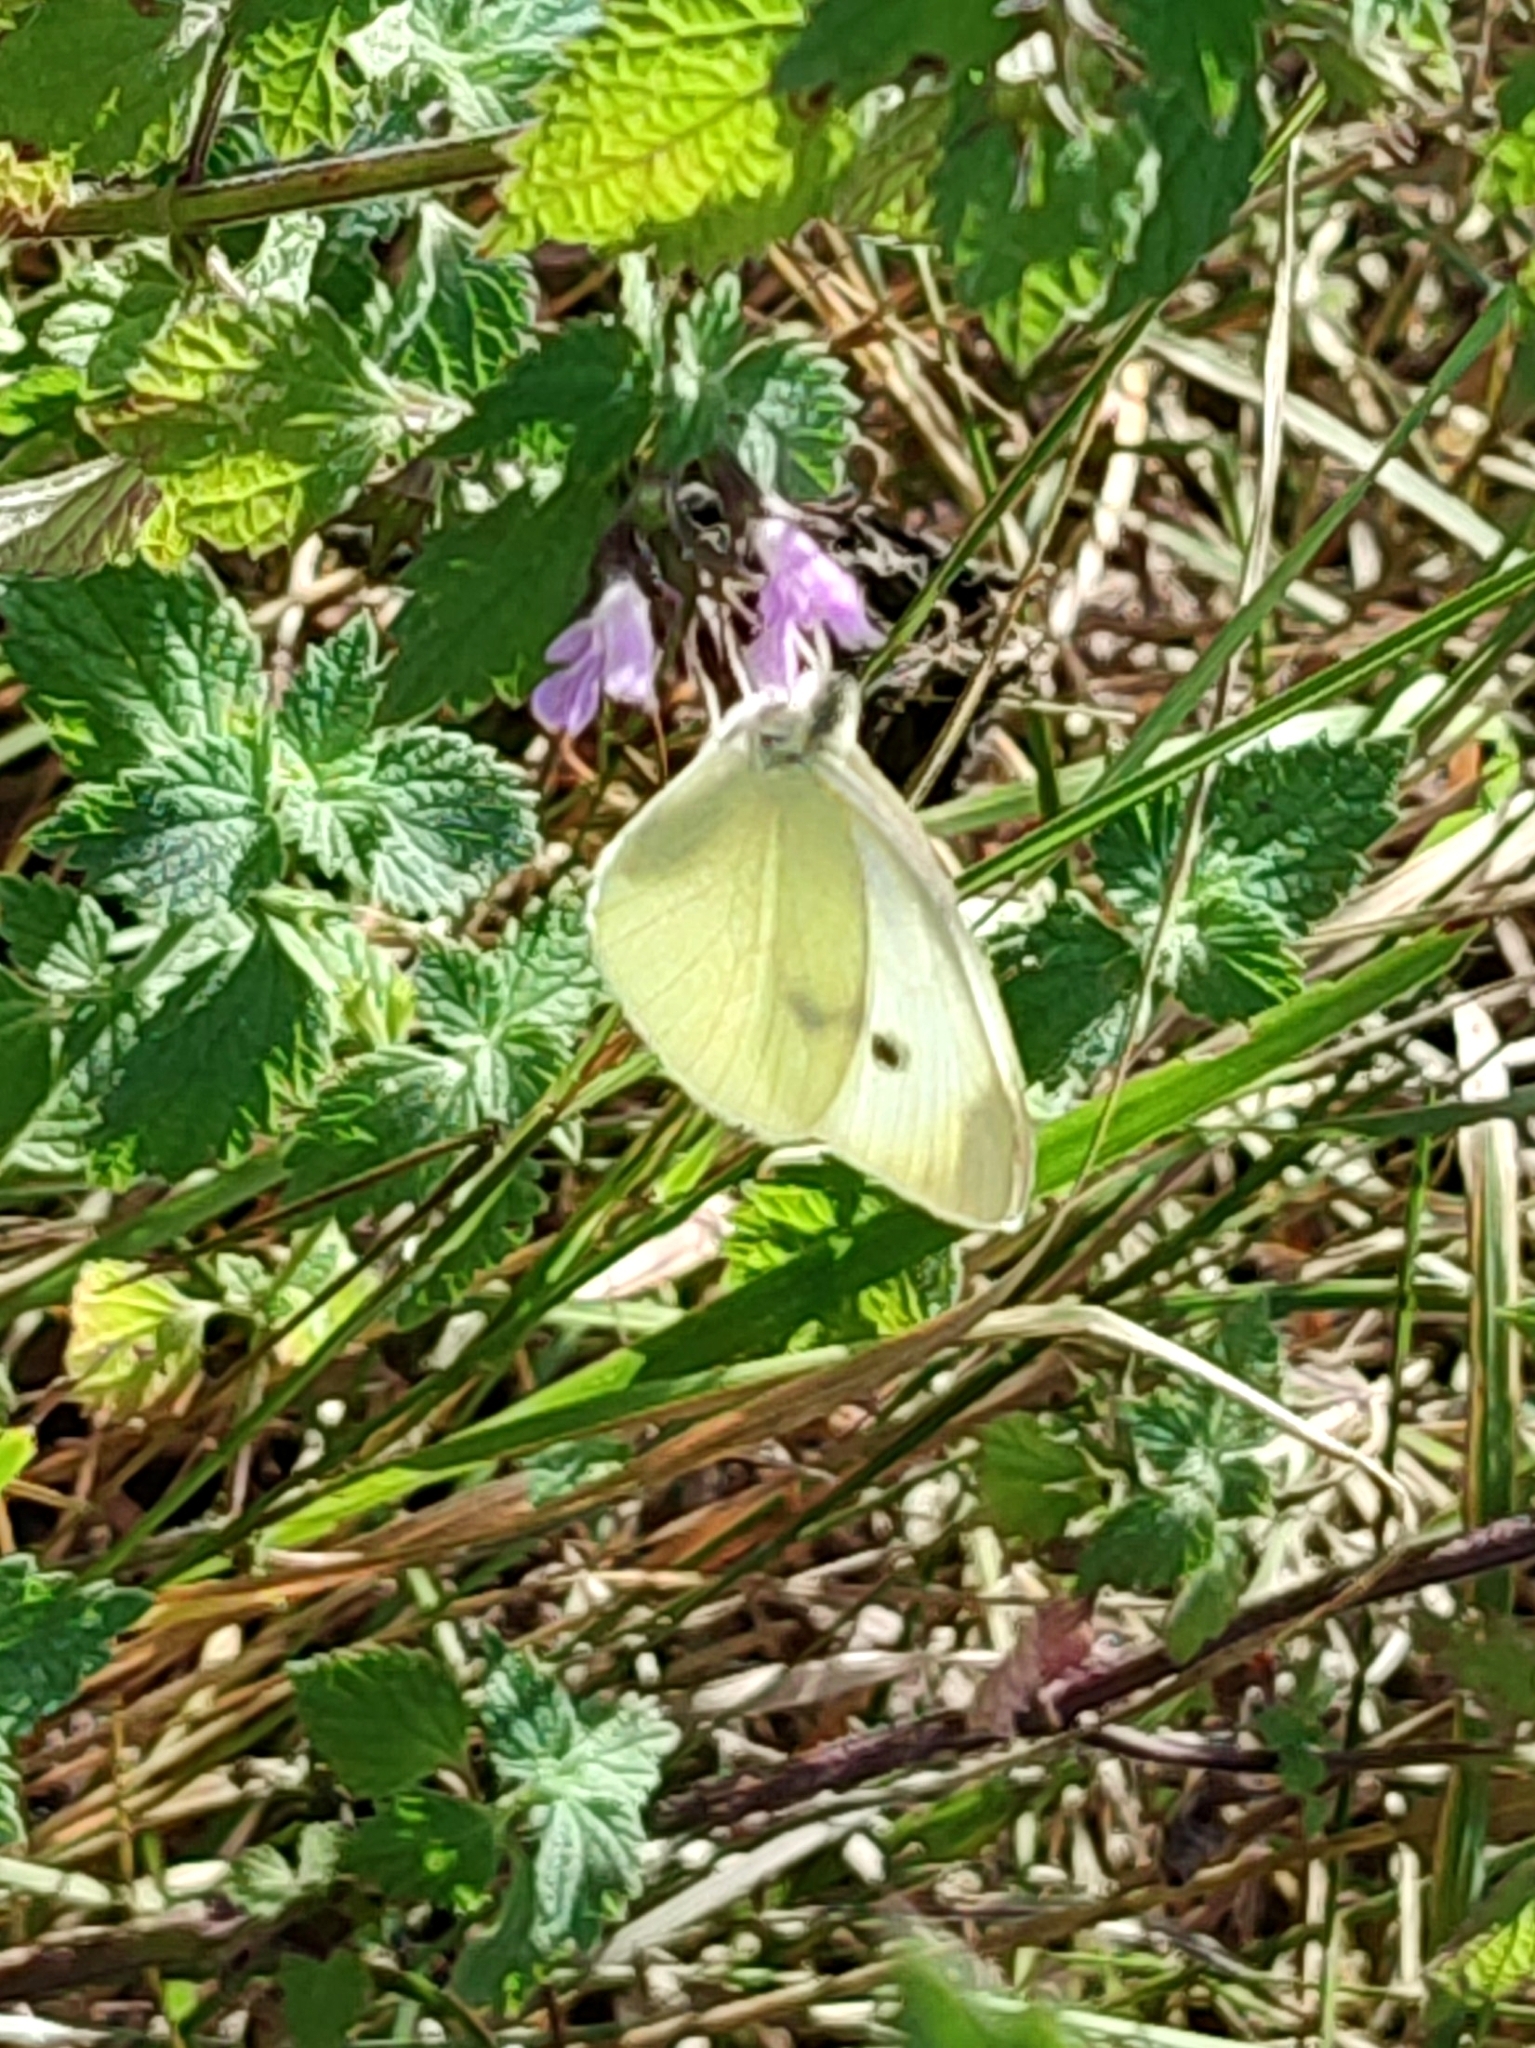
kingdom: Animalia
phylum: Arthropoda
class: Insecta
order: Lepidoptera
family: Pieridae
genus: Pieris
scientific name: Pieris rapae
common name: Small white
